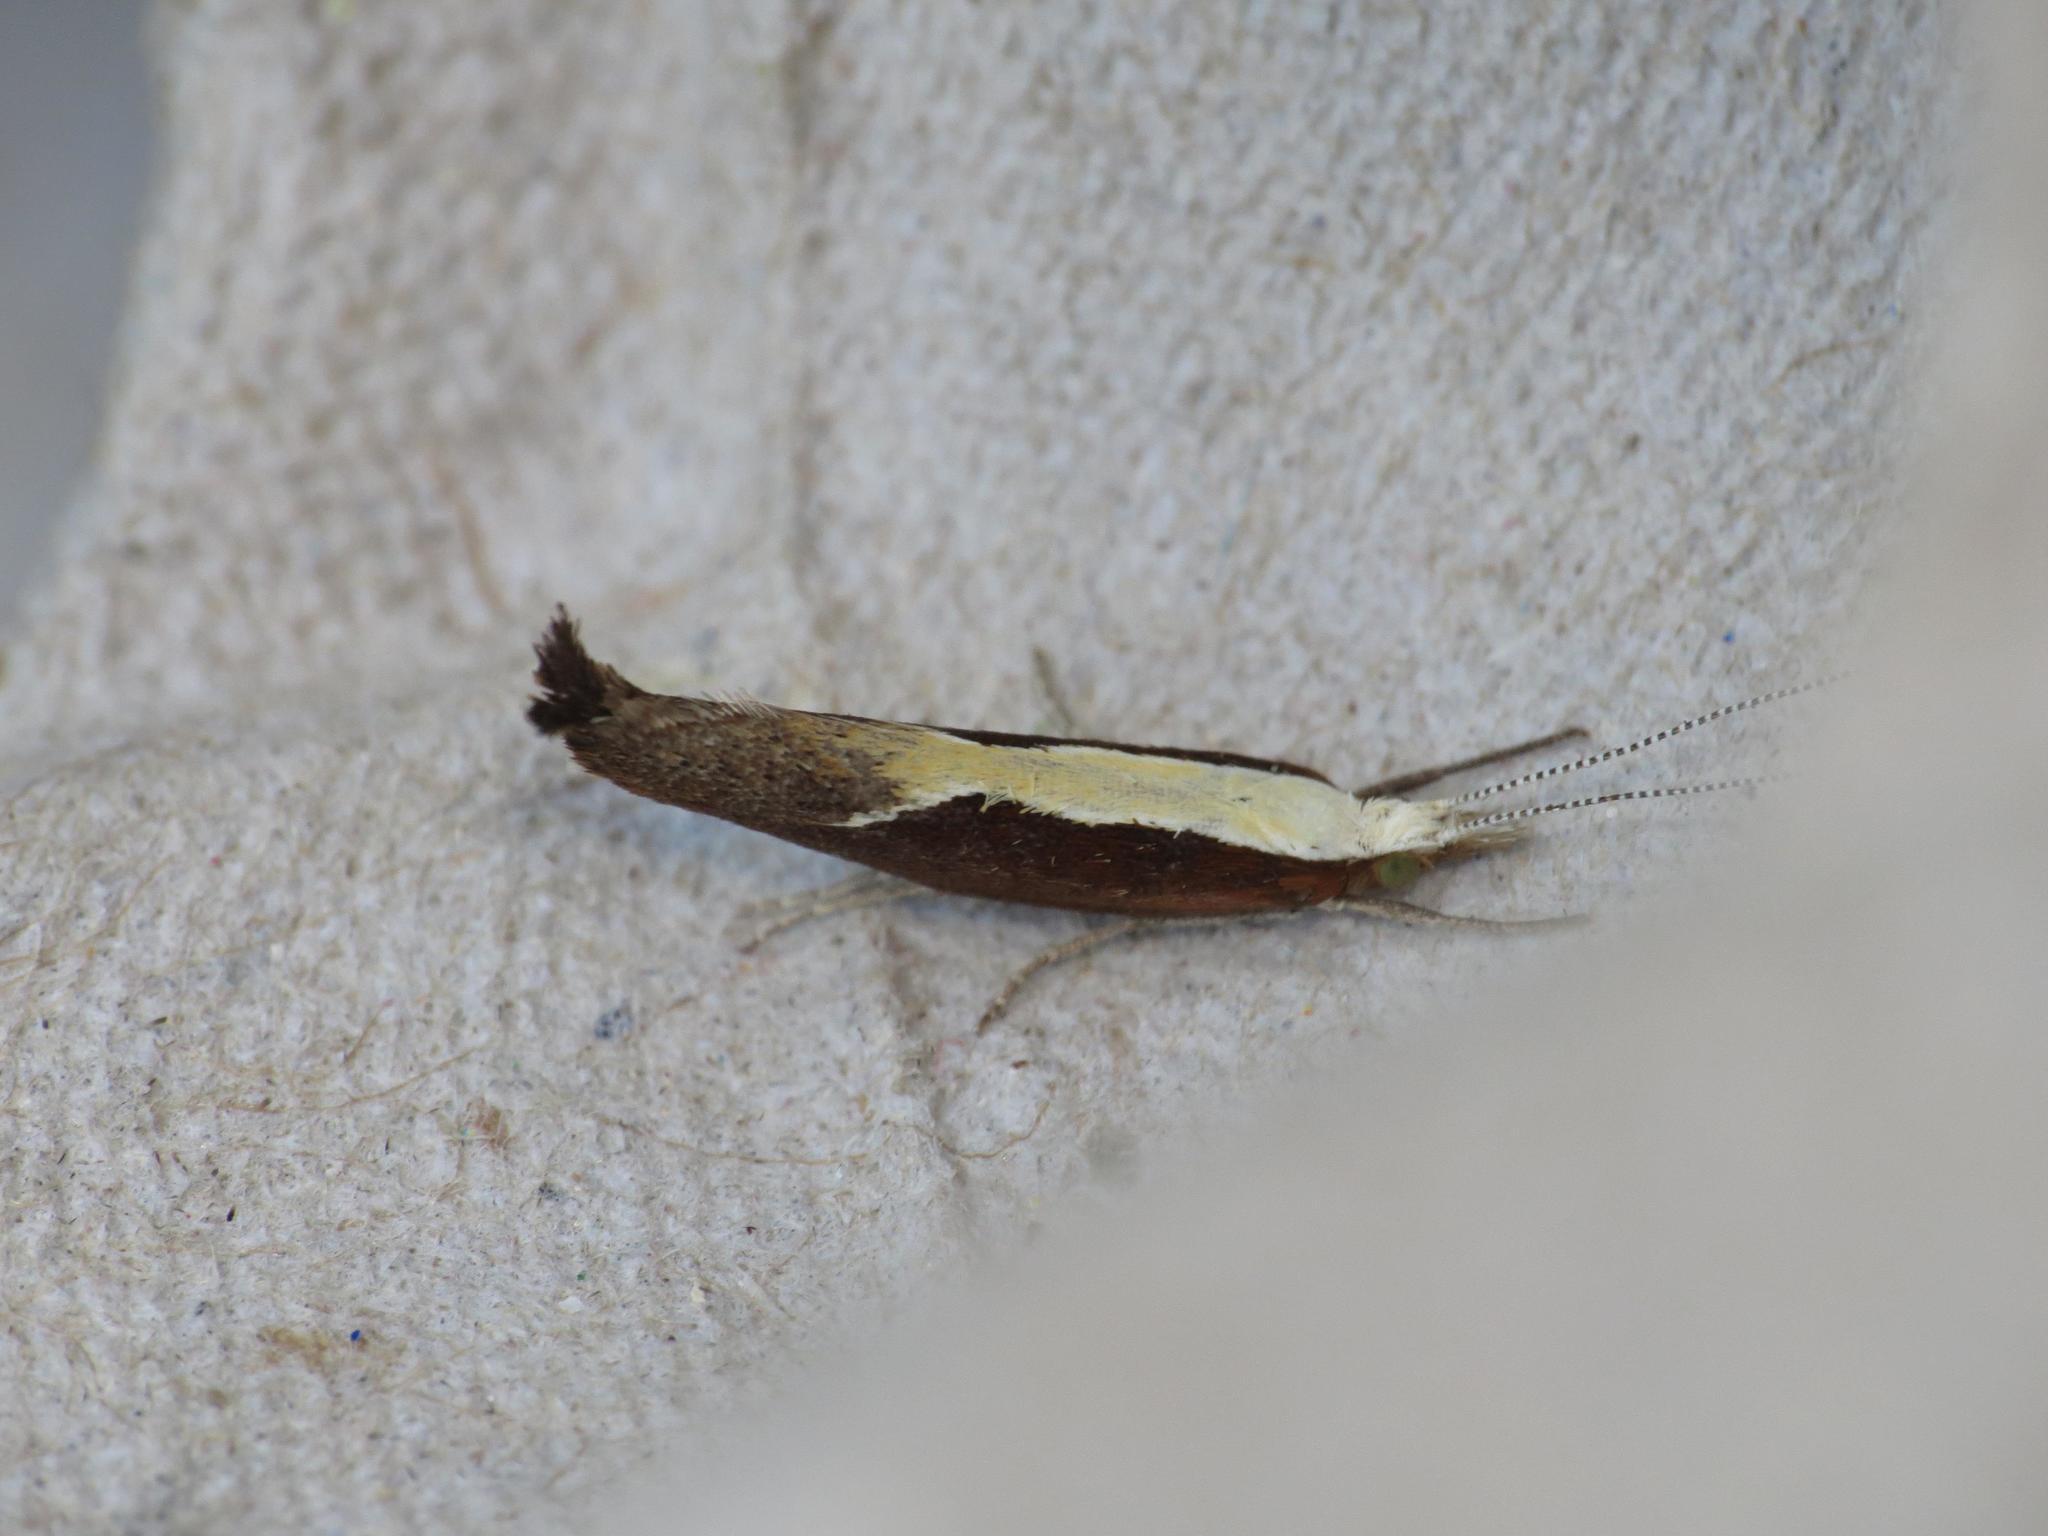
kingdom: Animalia
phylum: Arthropoda
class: Insecta
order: Lepidoptera
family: Ypsolophidae
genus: Ypsolopha
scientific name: Ypsolopha dentella
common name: Honeysuckle moth
